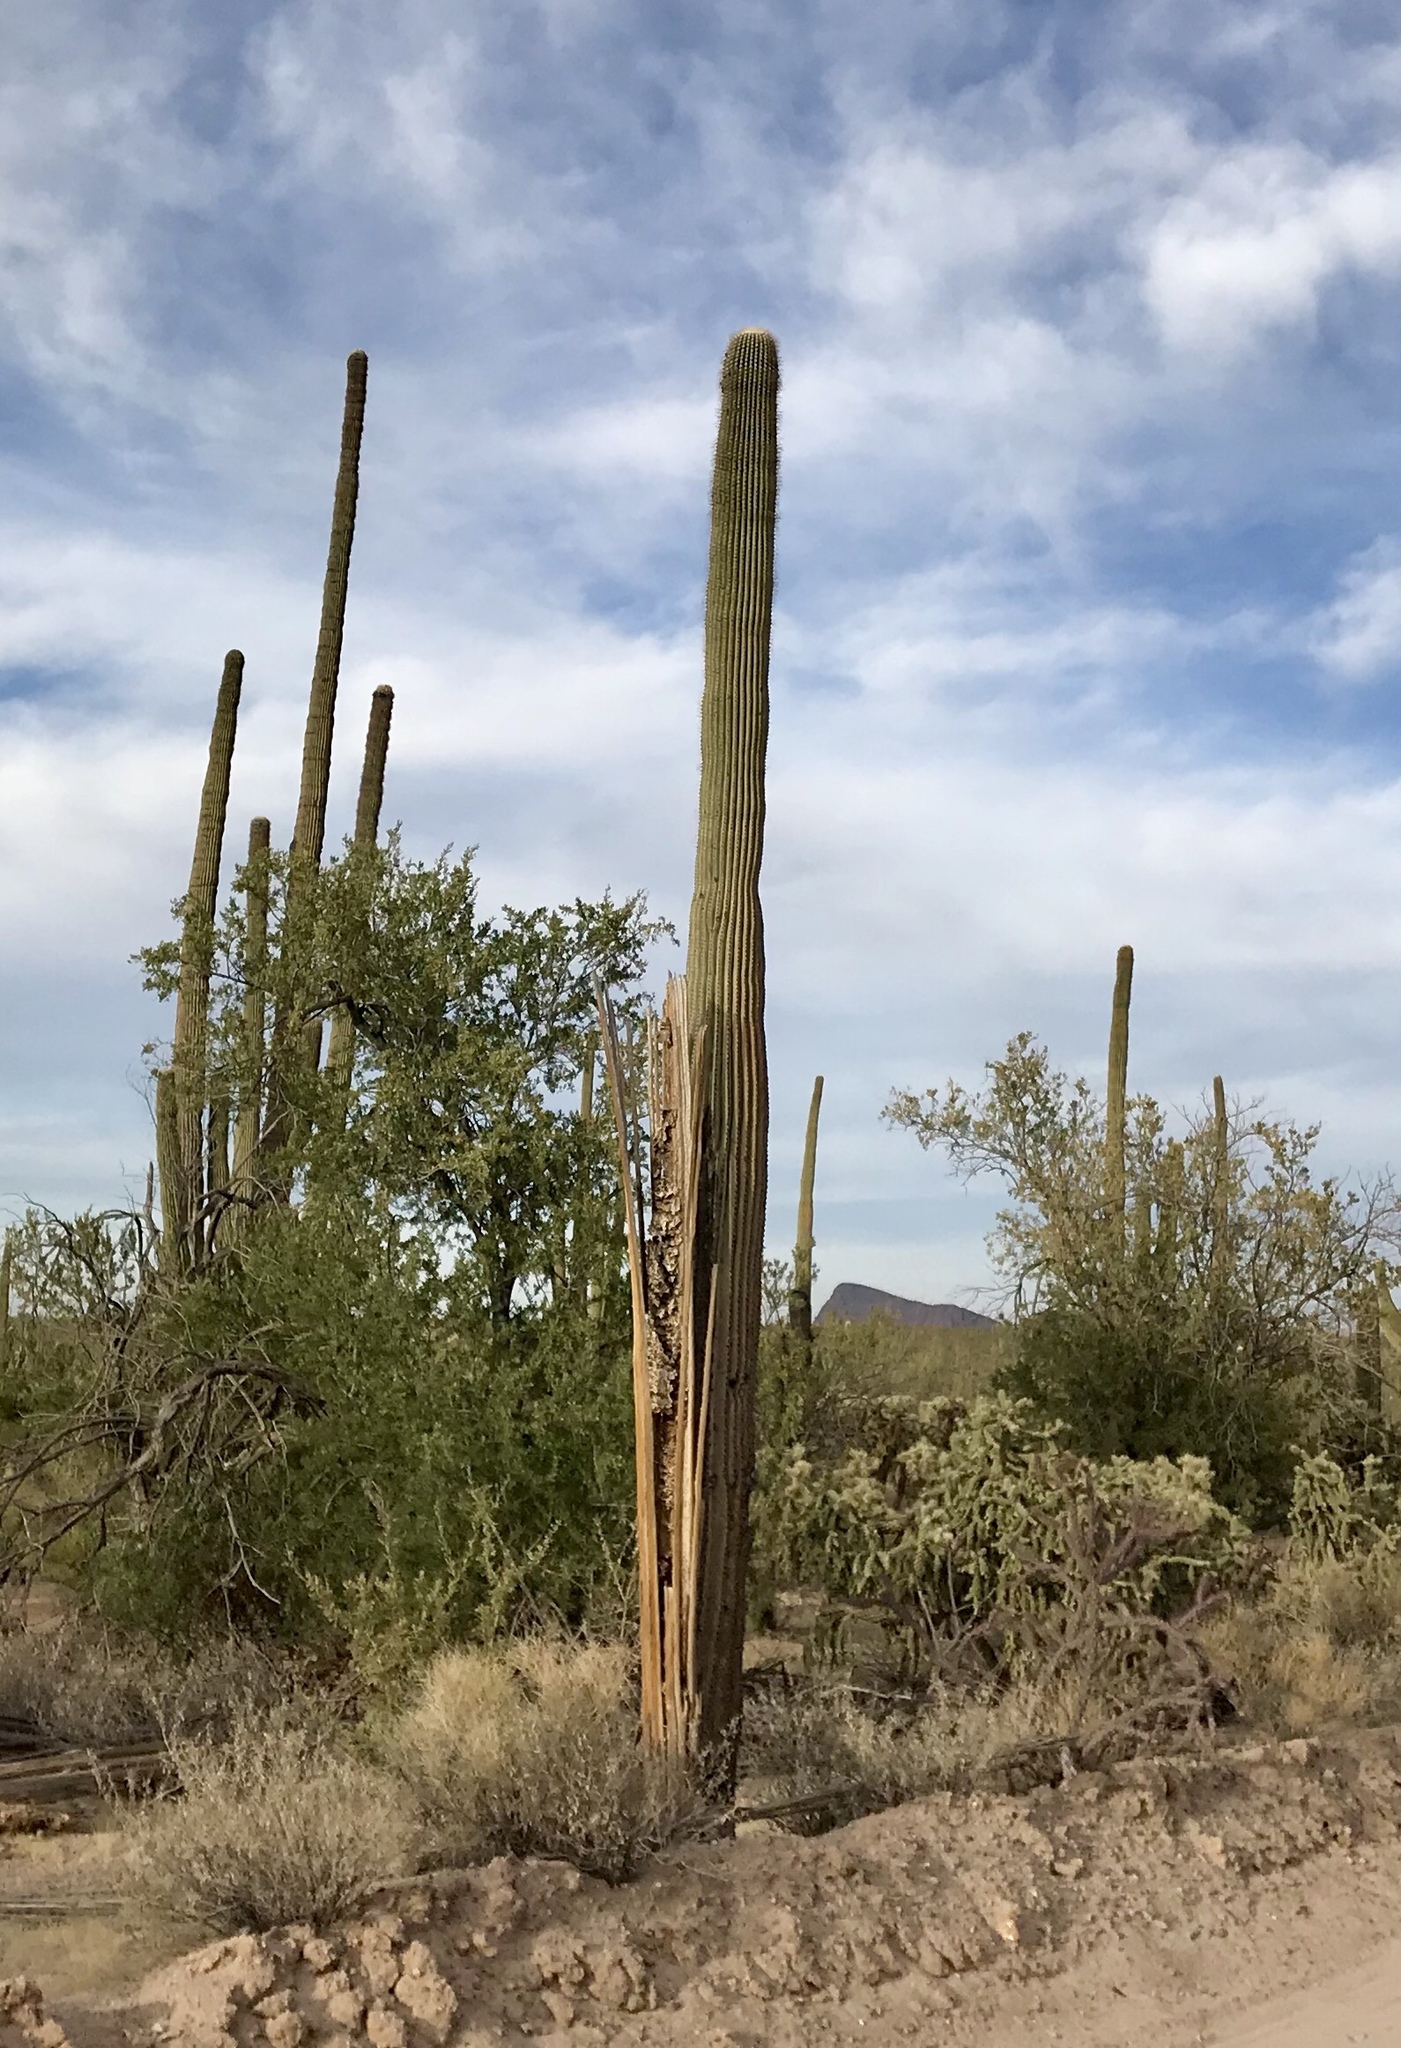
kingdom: Plantae
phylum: Tracheophyta
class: Magnoliopsida
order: Caryophyllales
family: Cactaceae
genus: Carnegiea
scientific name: Carnegiea gigantea
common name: Saguaro
